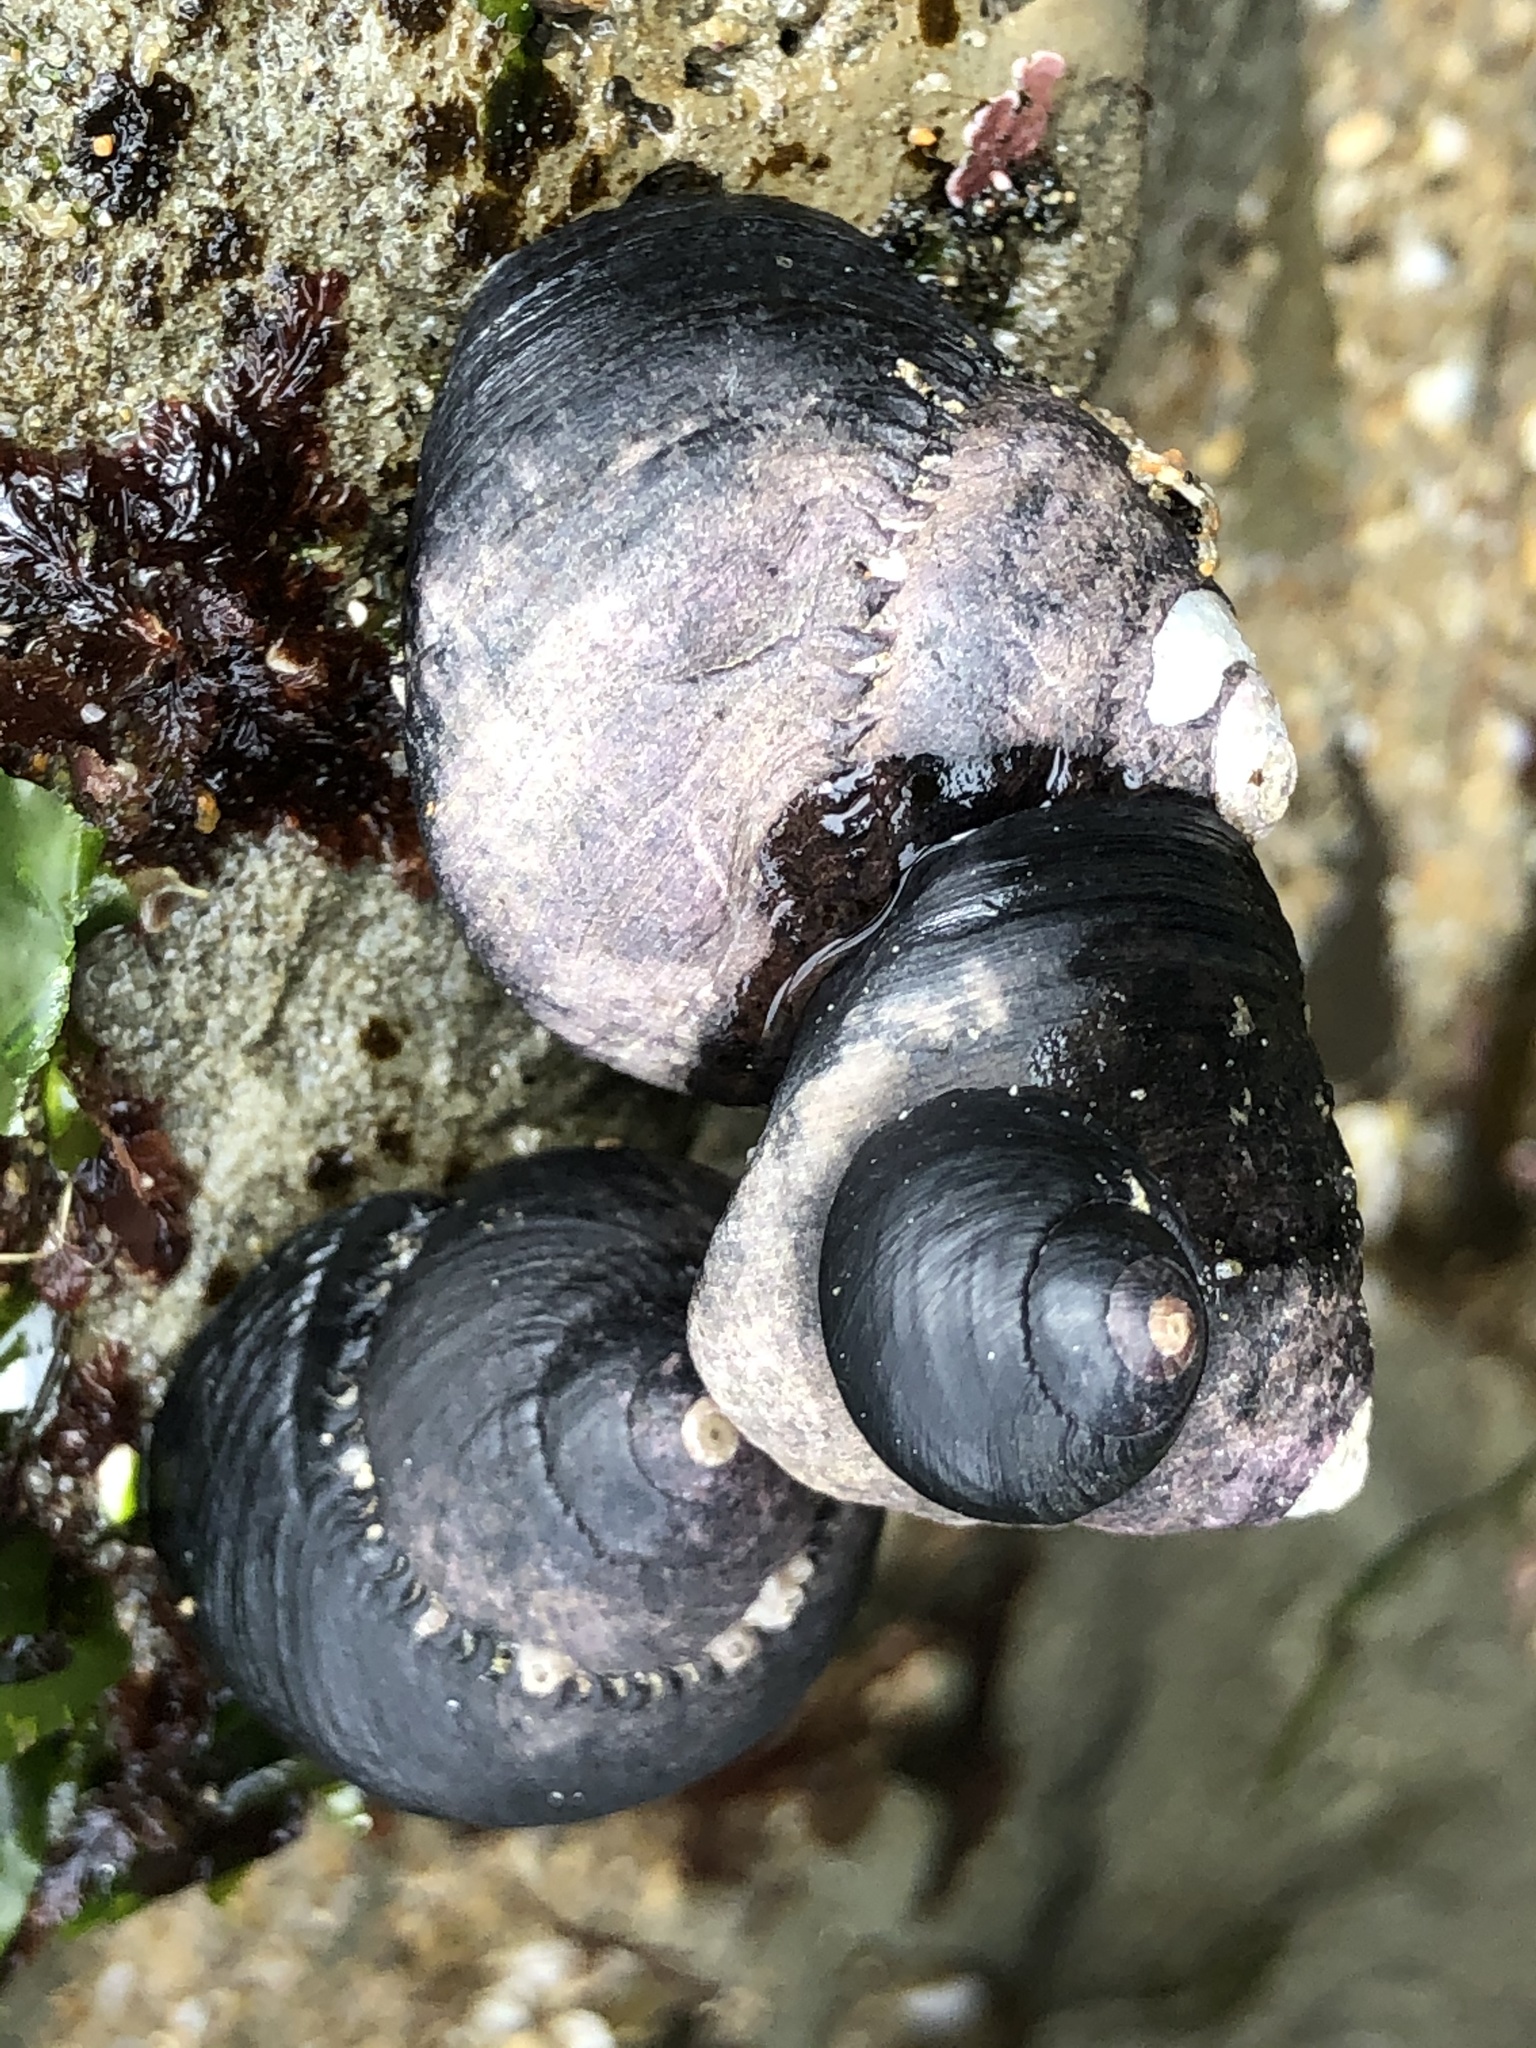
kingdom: Animalia
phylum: Mollusca
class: Gastropoda
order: Trochida
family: Tegulidae
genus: Tegula
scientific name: Tegula funebralis
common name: Black tegula
